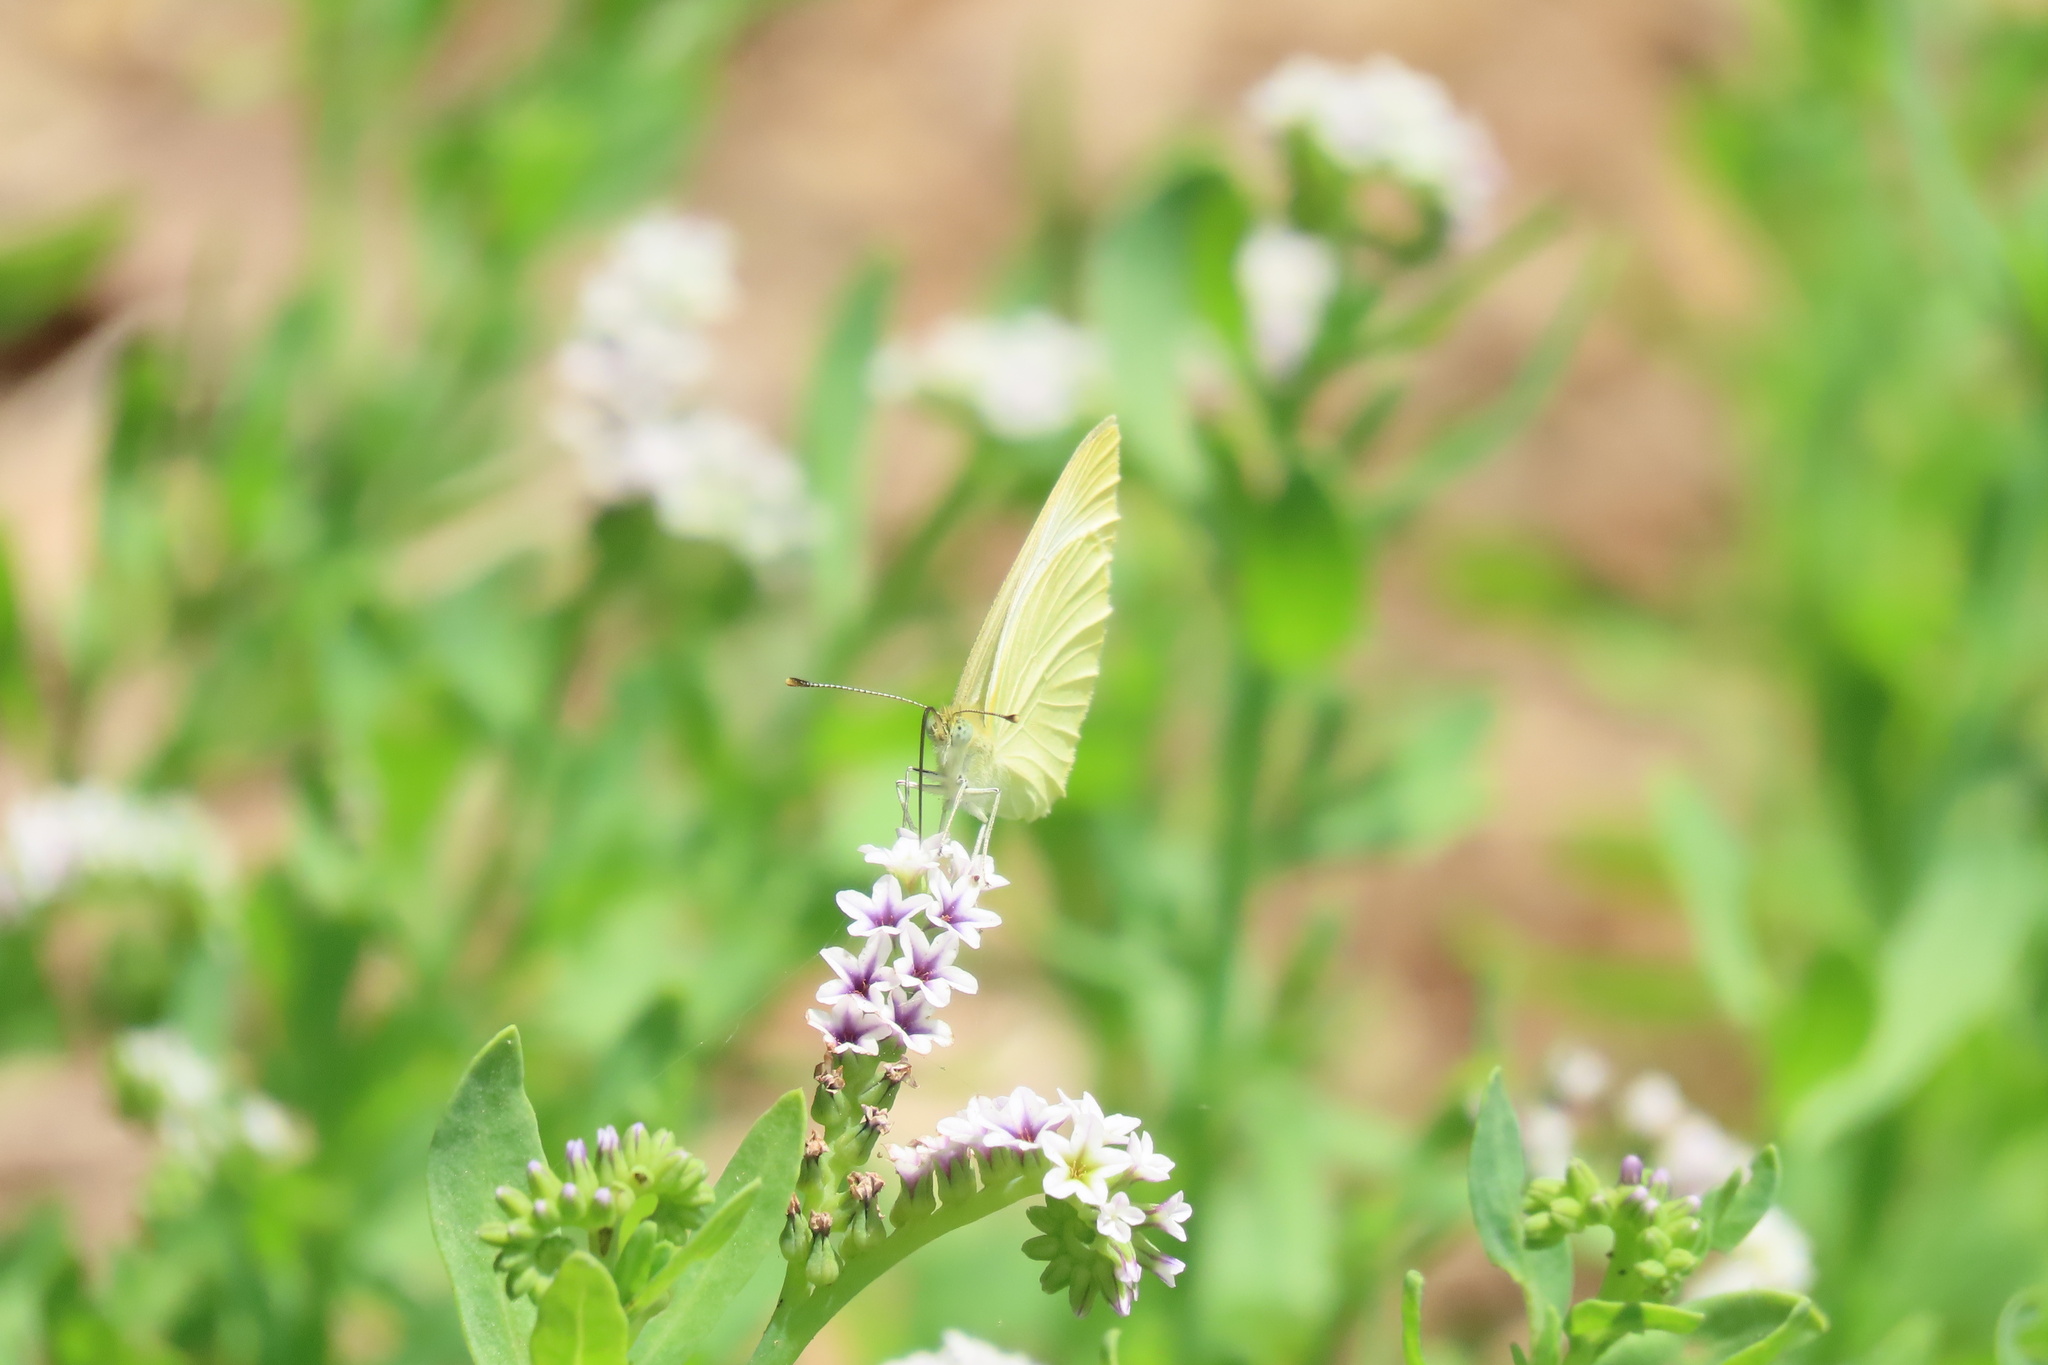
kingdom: Animalia
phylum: Arthropoda
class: Insecta
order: Lepidoptera
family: Pieridae
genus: Pieris
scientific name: Pieris rapae
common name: Small white
